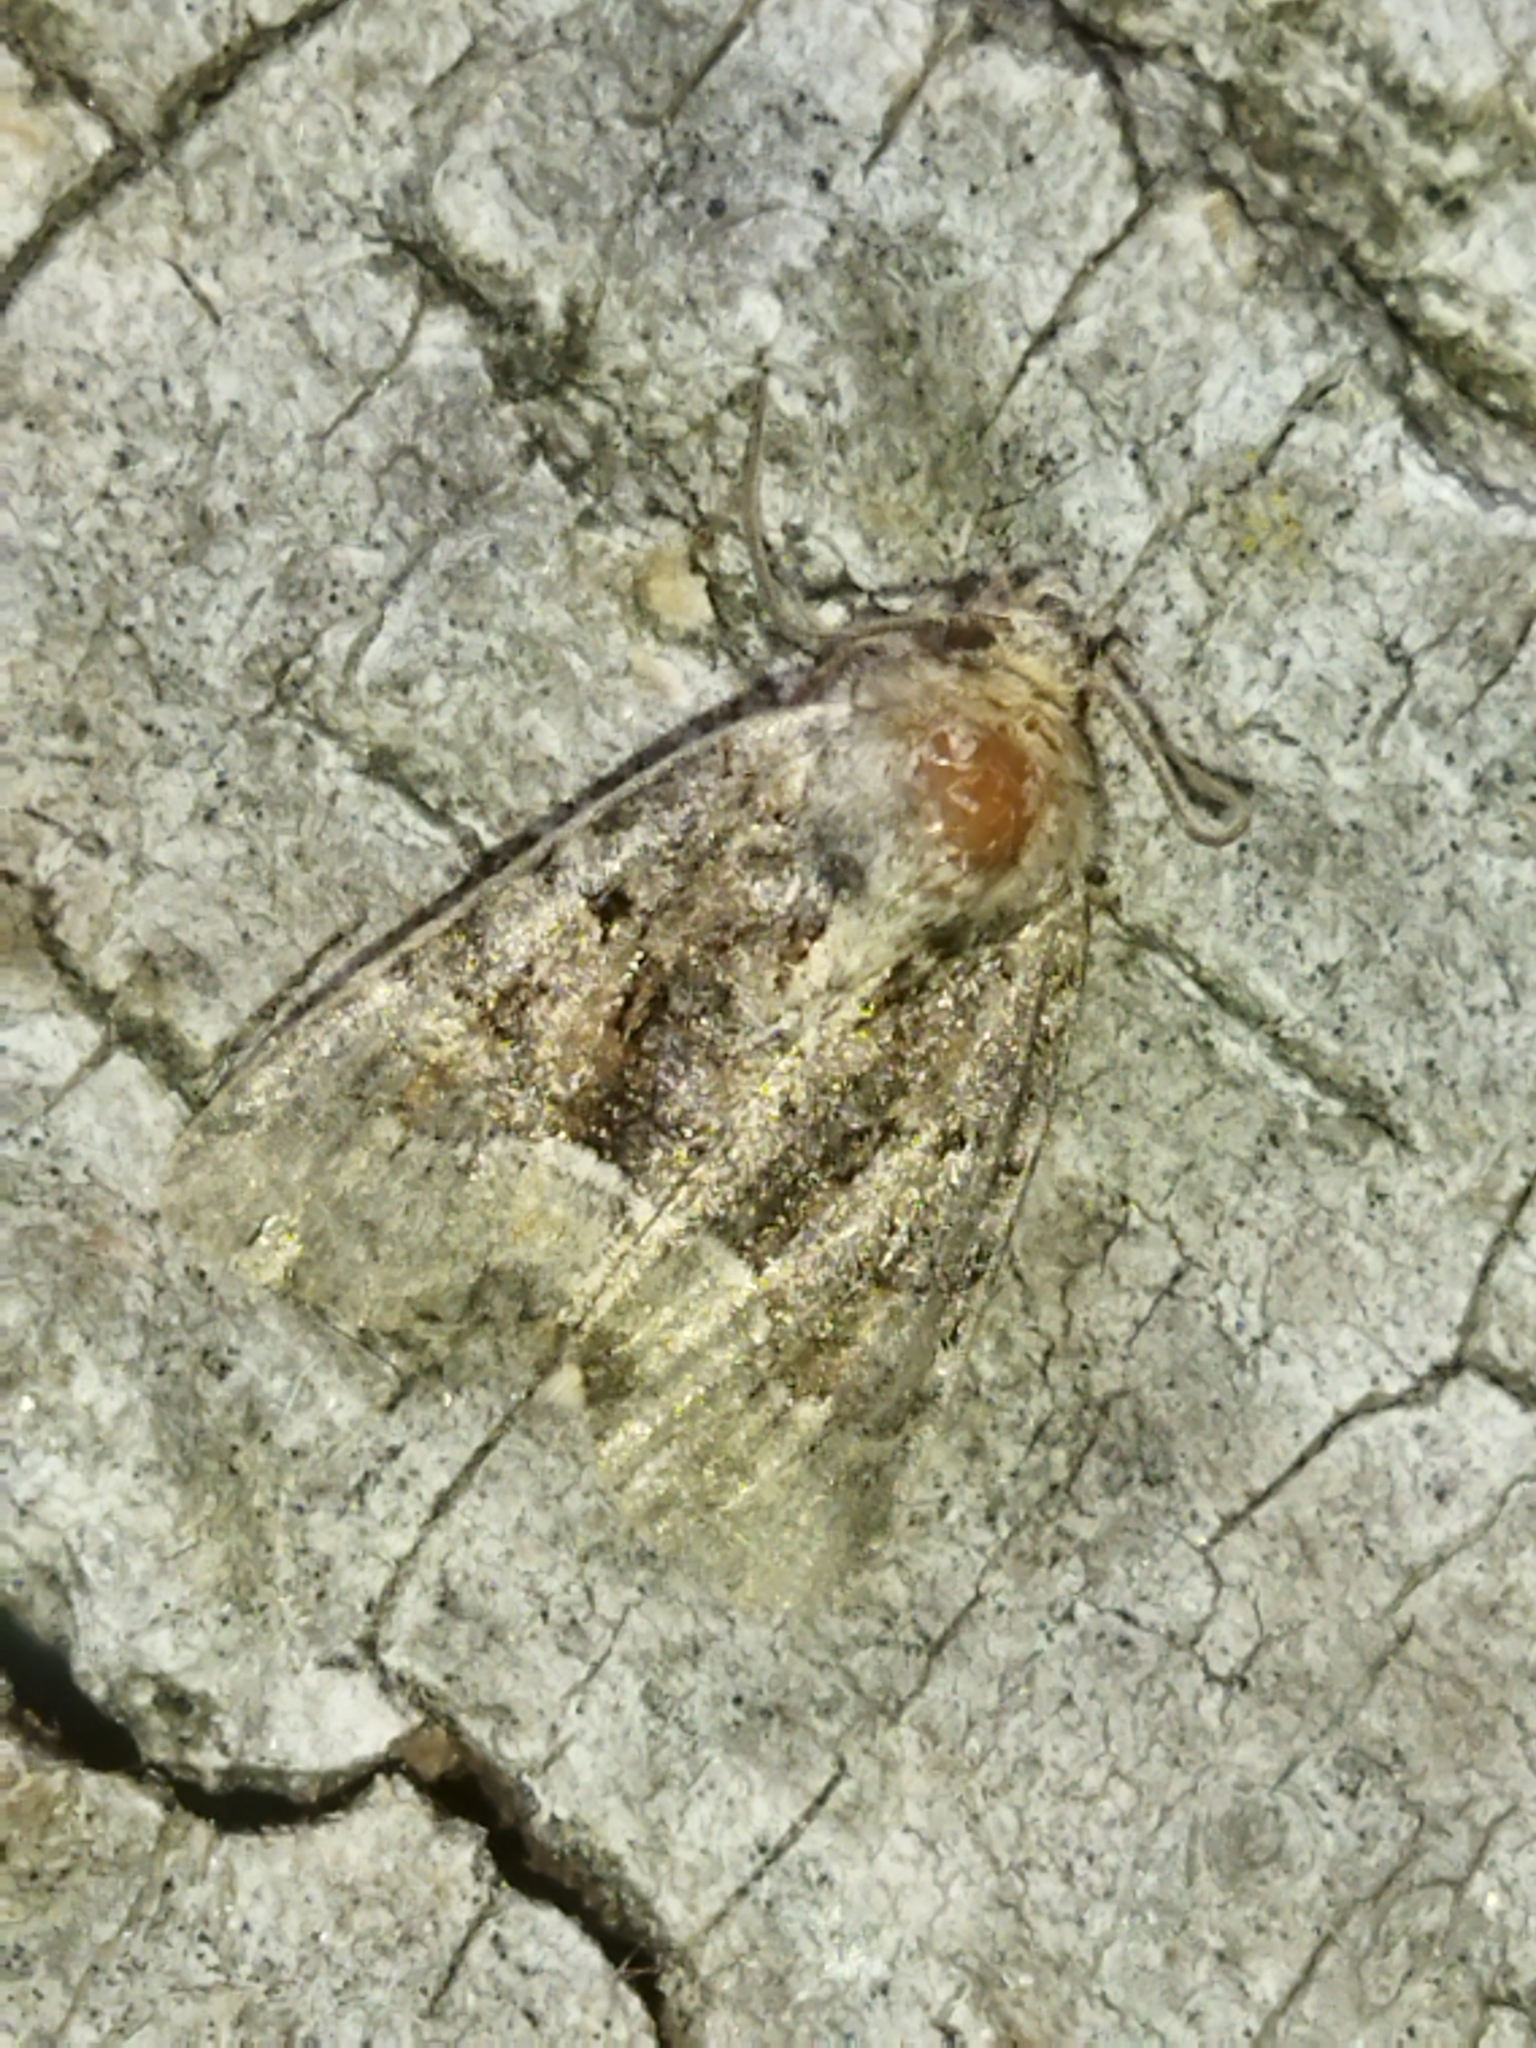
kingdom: Animalia
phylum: Arthropoda
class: Insecta
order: Lepidoptera
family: Noctuidae
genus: Oligia
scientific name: Oligia
